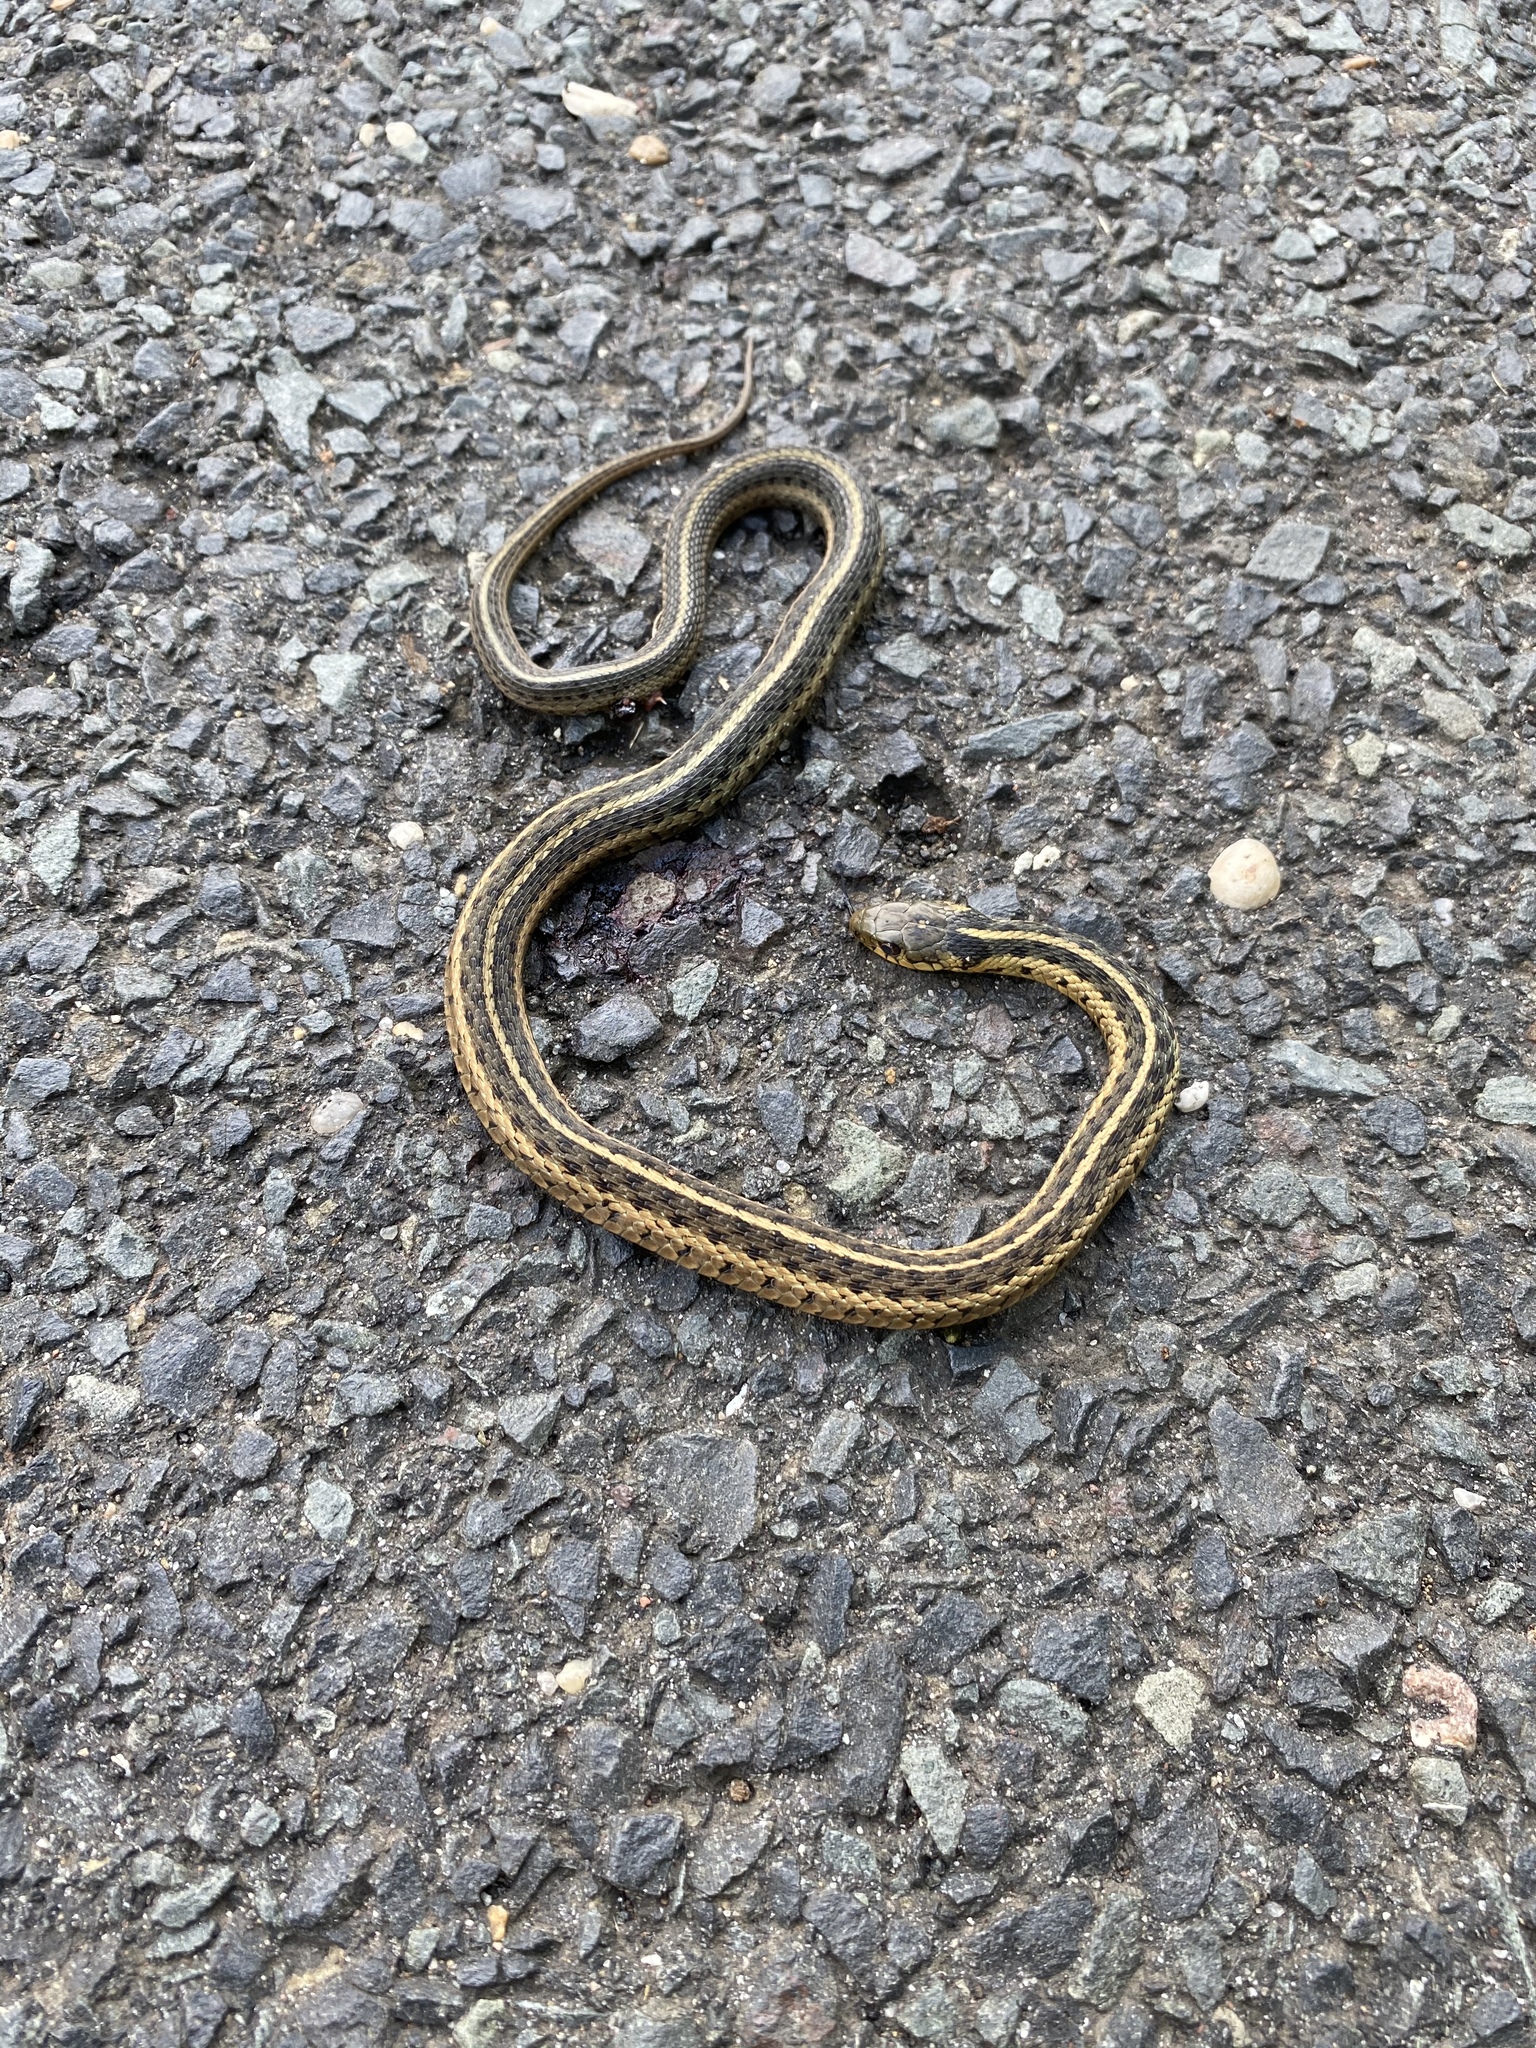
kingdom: Animalia
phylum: Chordata
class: Squamata
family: Colubridae
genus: Thamnophis
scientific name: Thamnophis sirtalis
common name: Common garter snake
